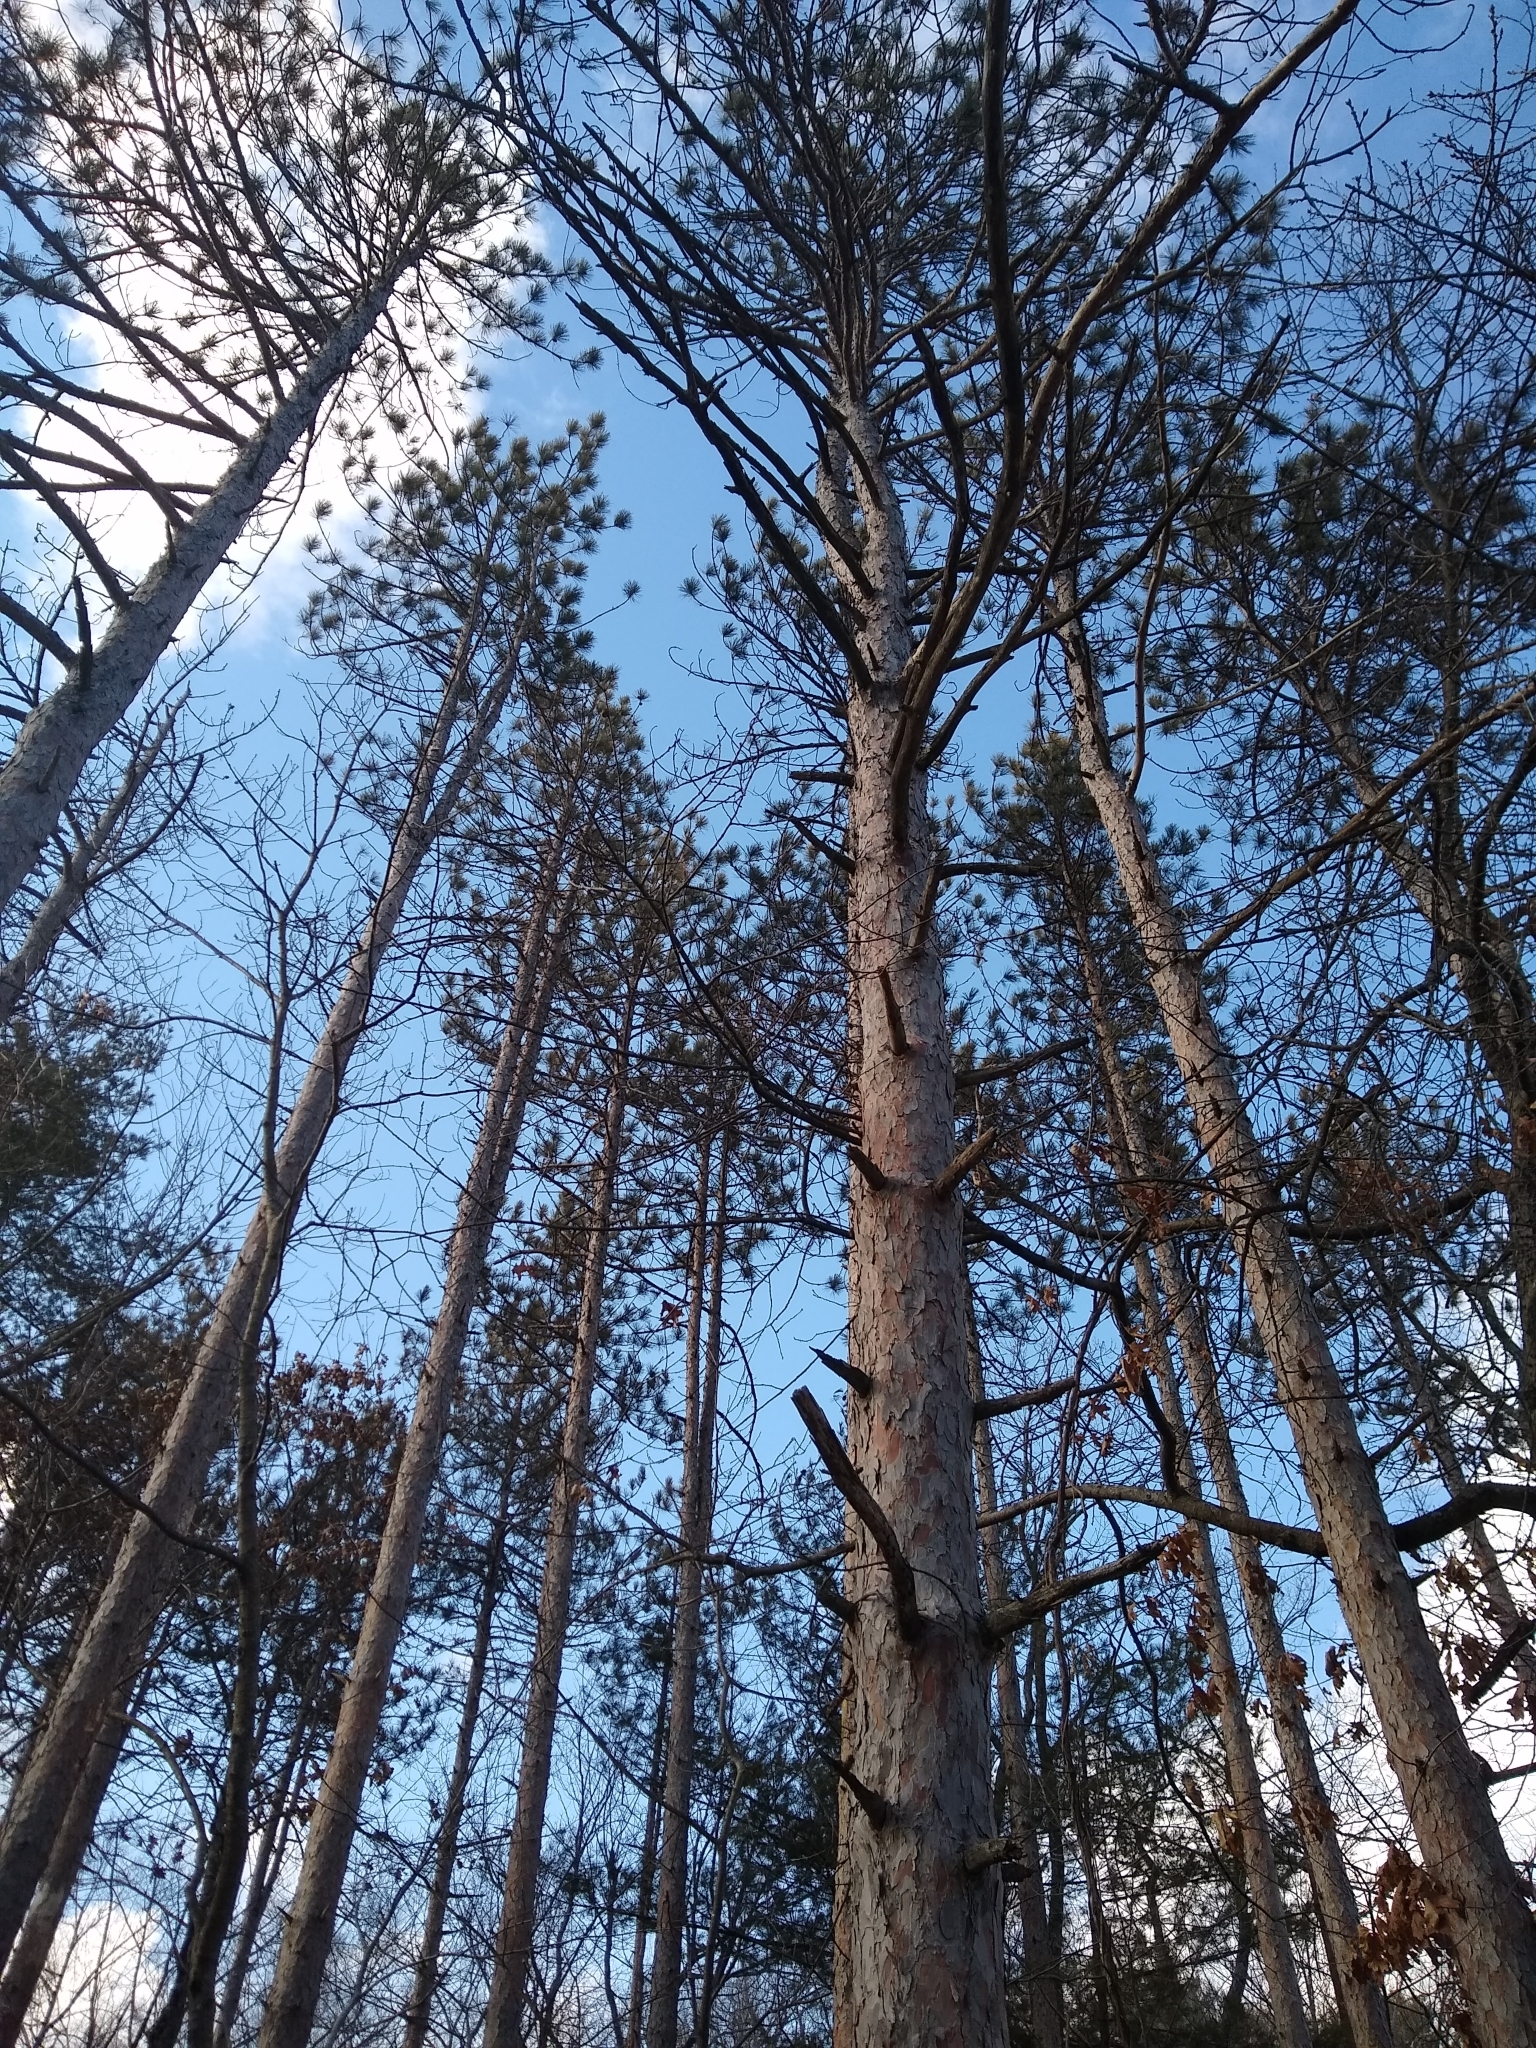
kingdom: Plantae
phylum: Tracheophyta
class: Pinopsida
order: Pinales
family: Pinaceae
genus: Pinus
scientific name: Pinus resinosa
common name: Norway pine
